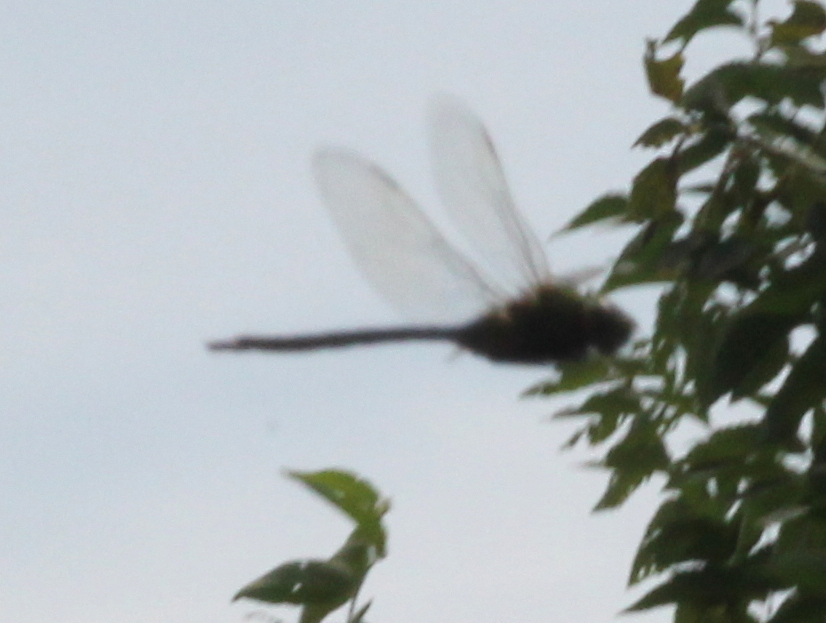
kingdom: Animalia
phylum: Arthropoda
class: Insecta
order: Odonata
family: Aeshnidae
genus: Anax
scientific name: Anax junius
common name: Common green darner
